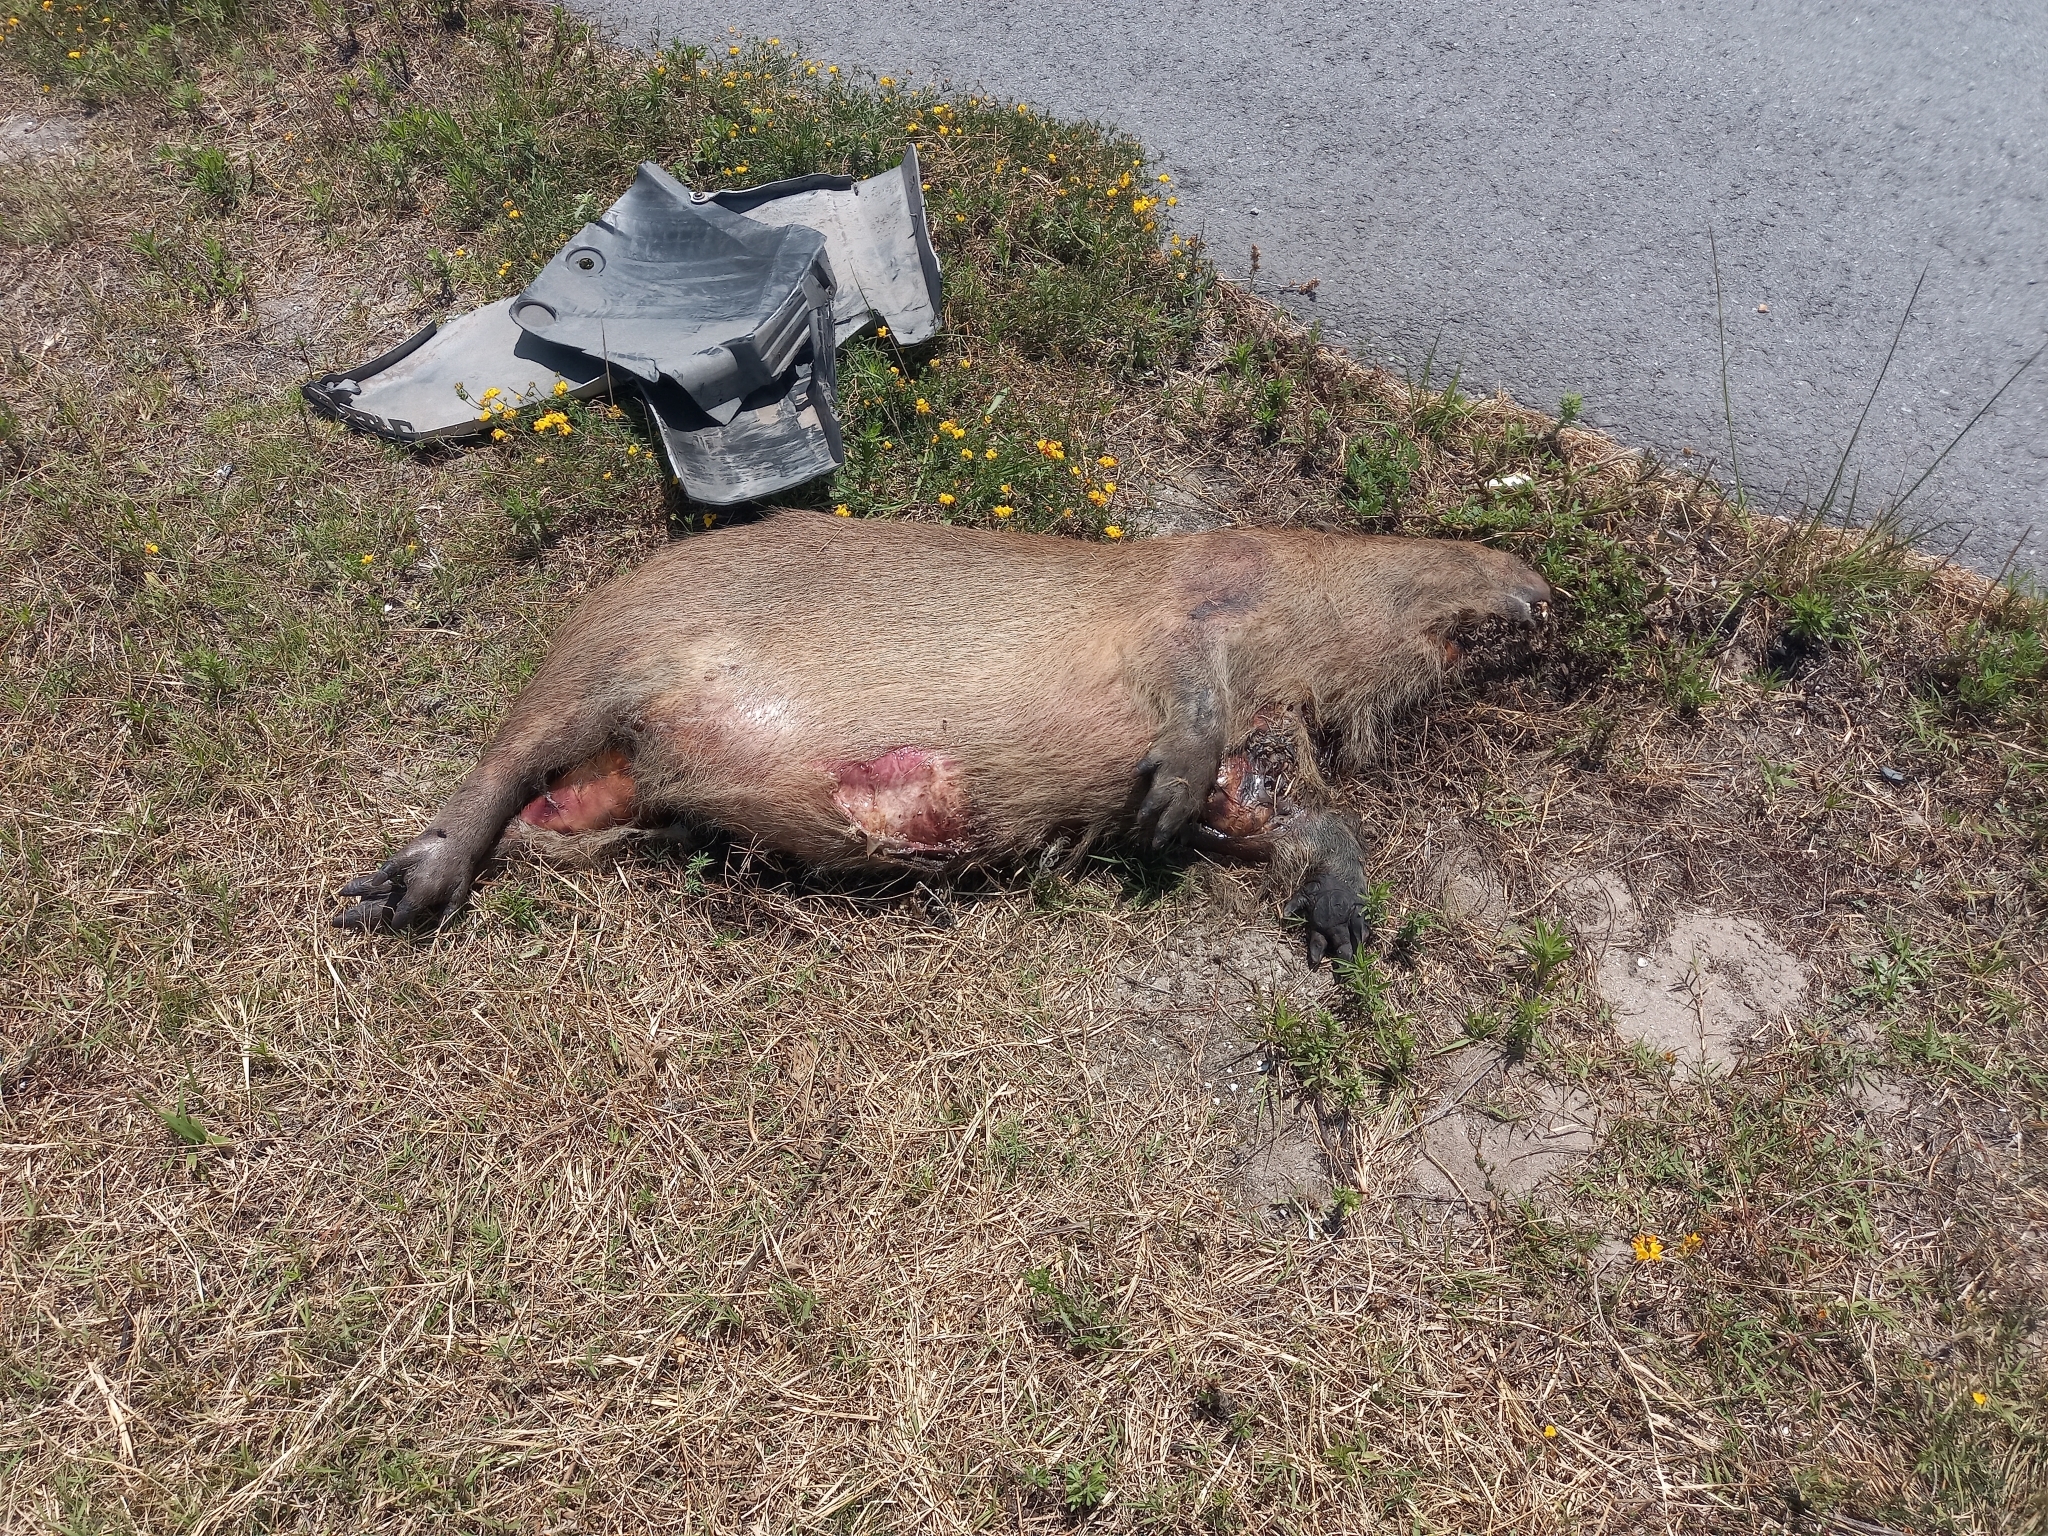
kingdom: Animalia
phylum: Chordata
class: Mammalia
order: Rodentia
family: Caviidae
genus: Hydrochoerus
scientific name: Hydrochoerus hydrochaeris
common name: Capybara
